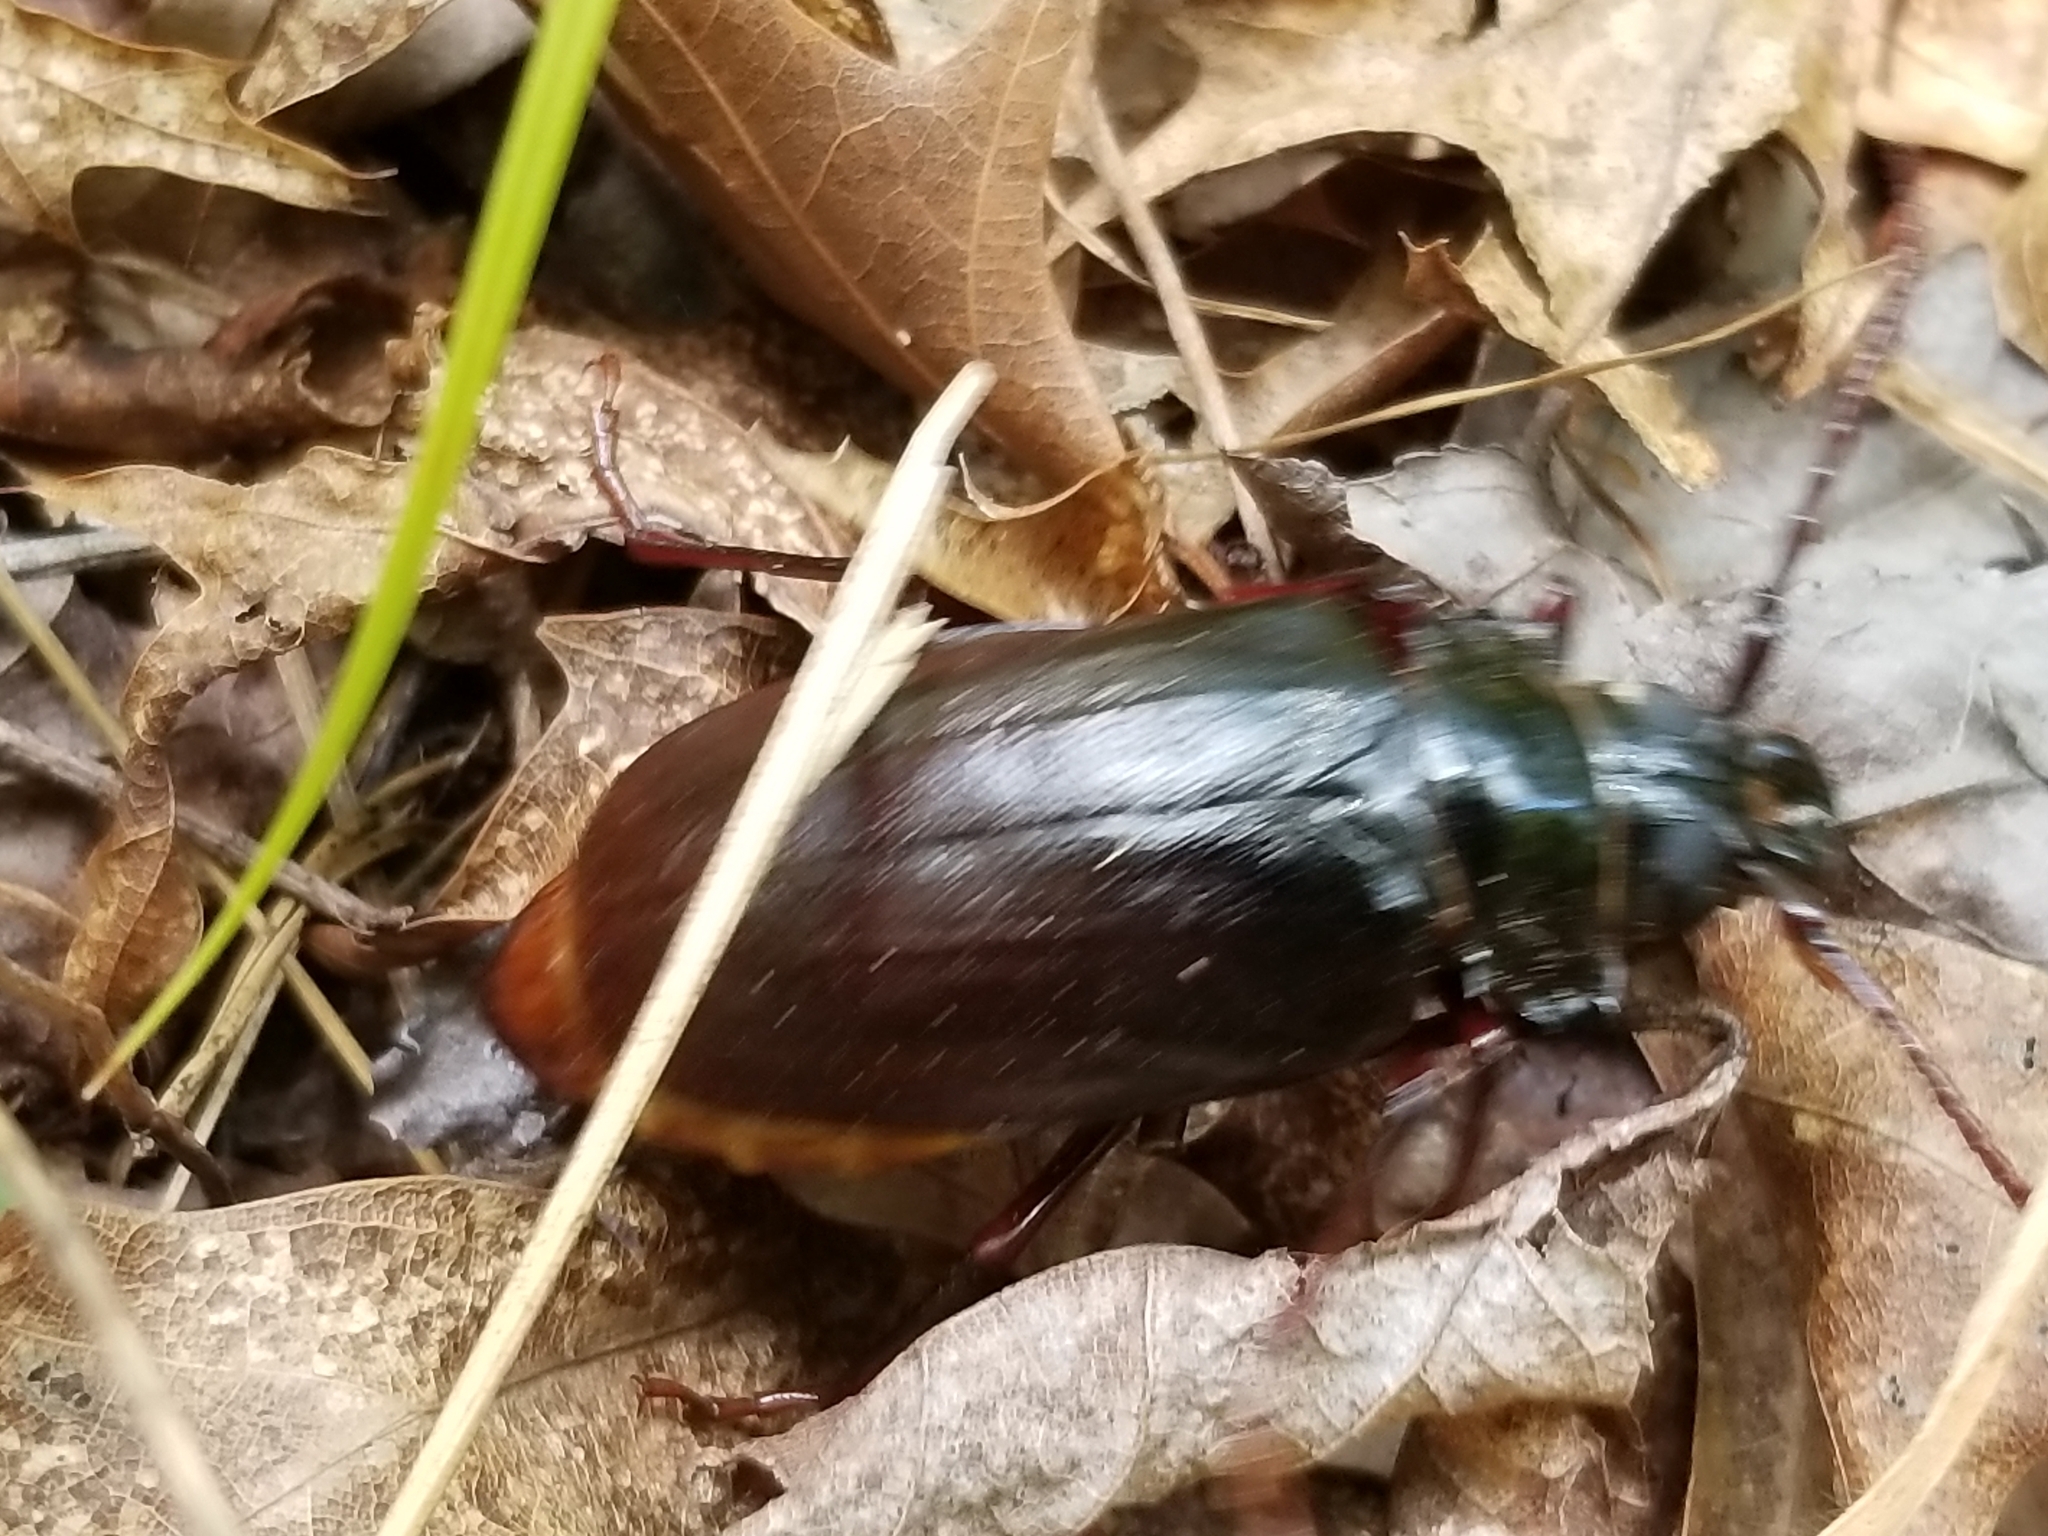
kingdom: Animalia
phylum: Arthropoda
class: Insecta
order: Coleoptera
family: Cerambycidae
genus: Prionus
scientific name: Prionus imbricornis
